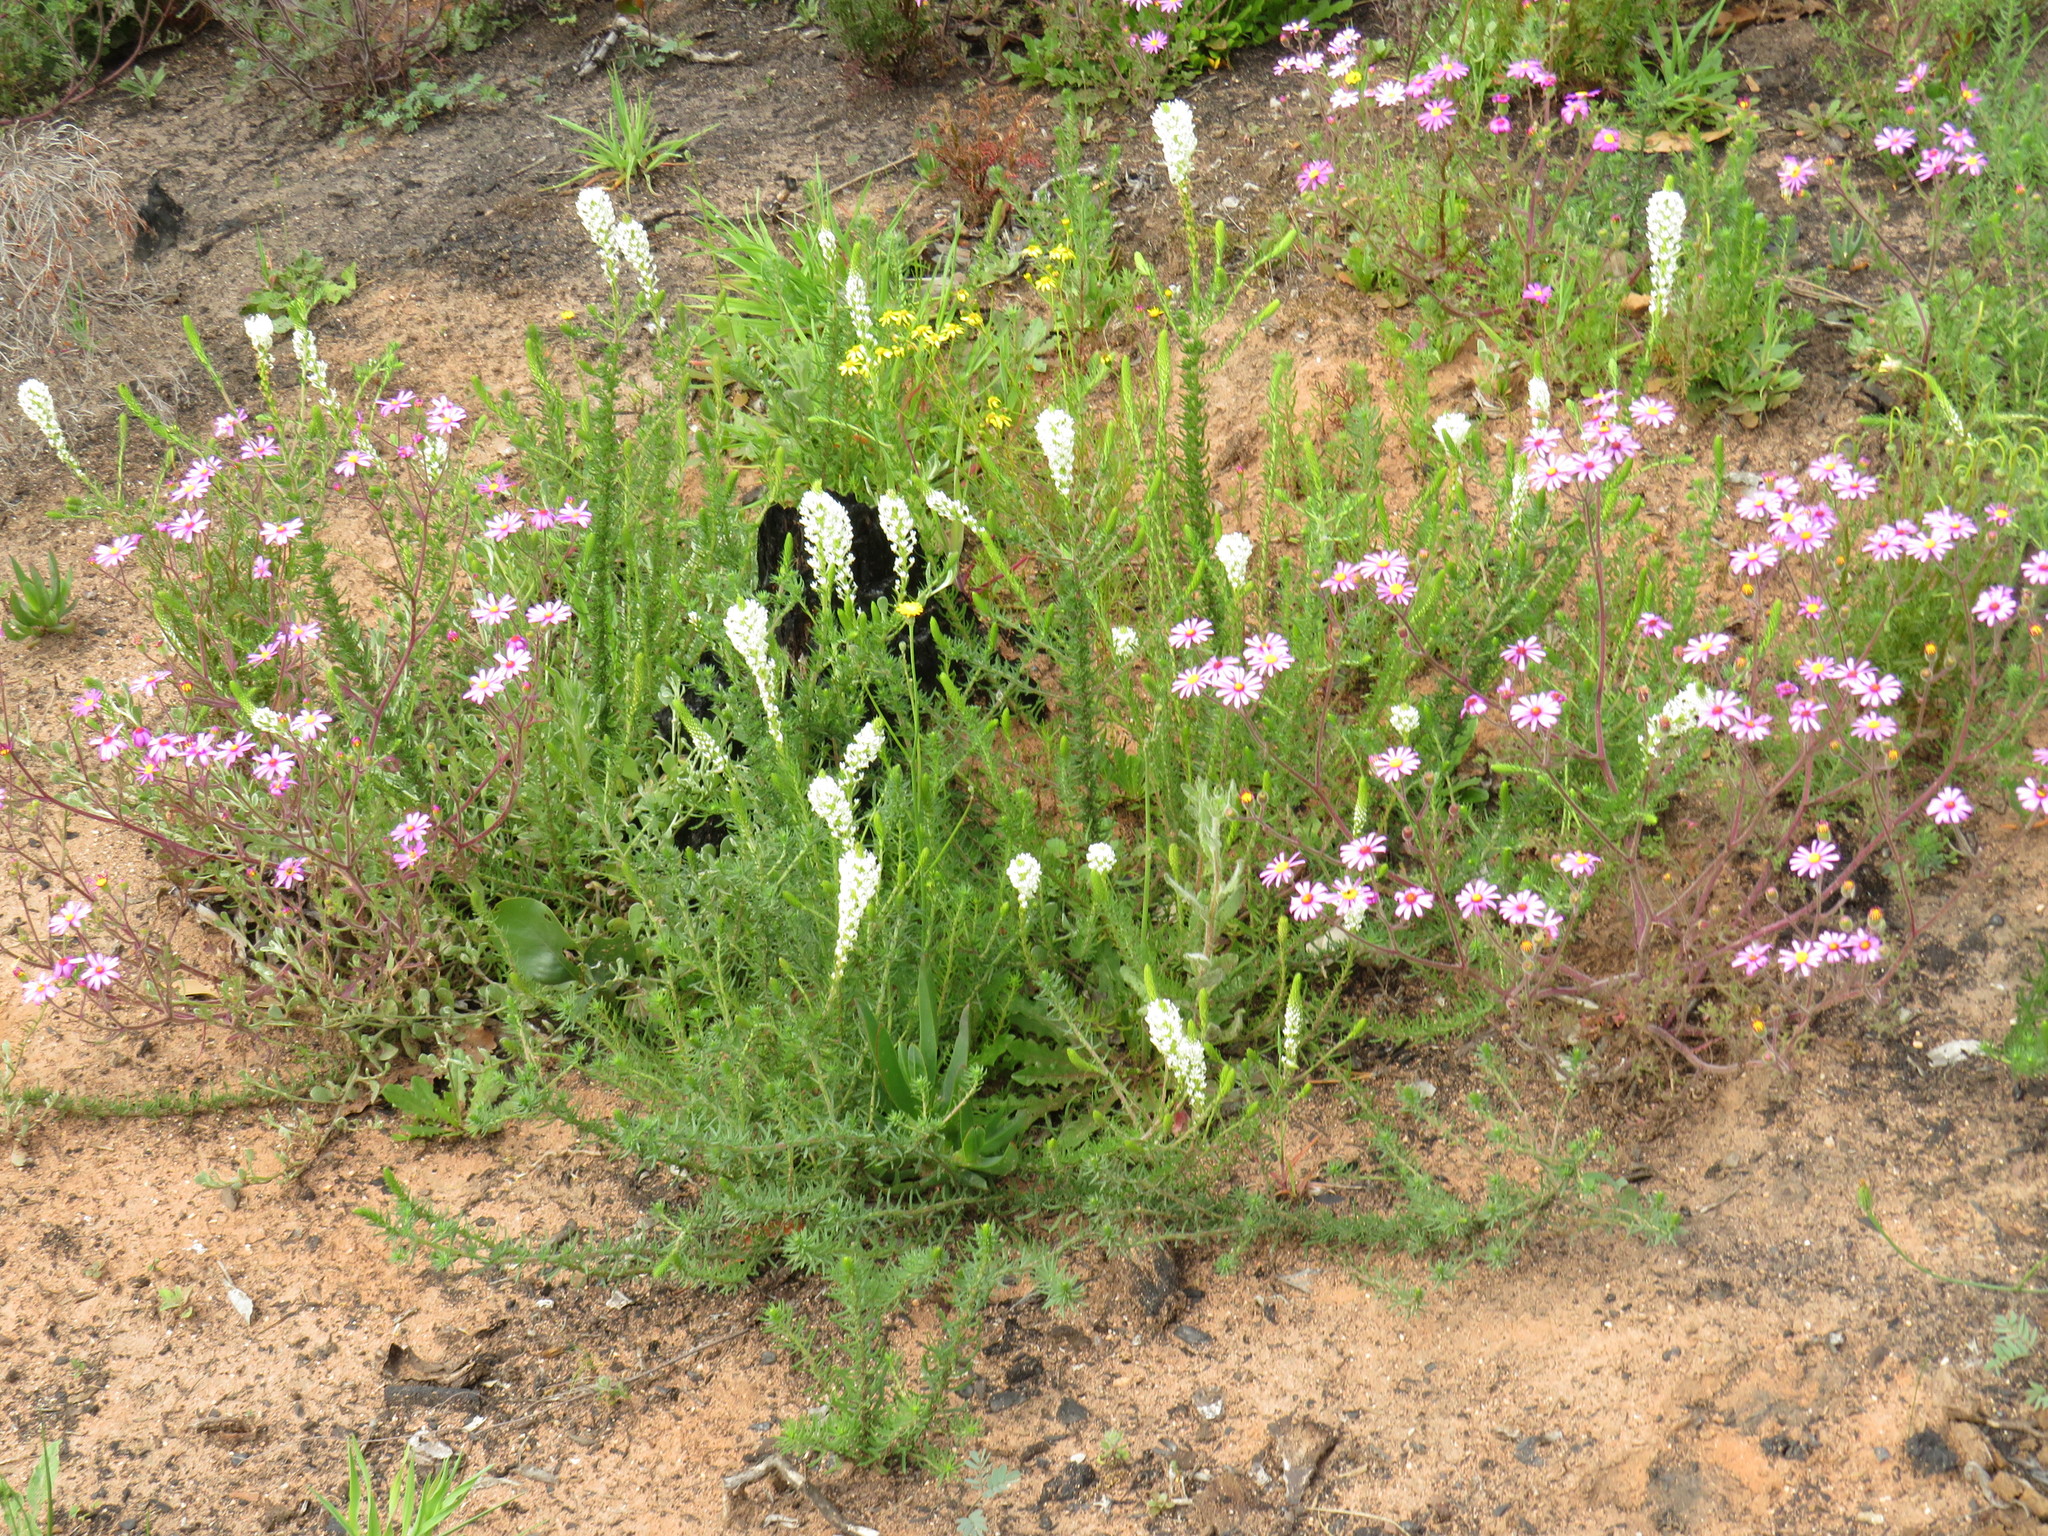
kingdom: Plantae
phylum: Tracheophyta
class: Magnoliopsida
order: Lamiales
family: Scrophulariaceae
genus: Dischisma
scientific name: Dischisma ciliatum
